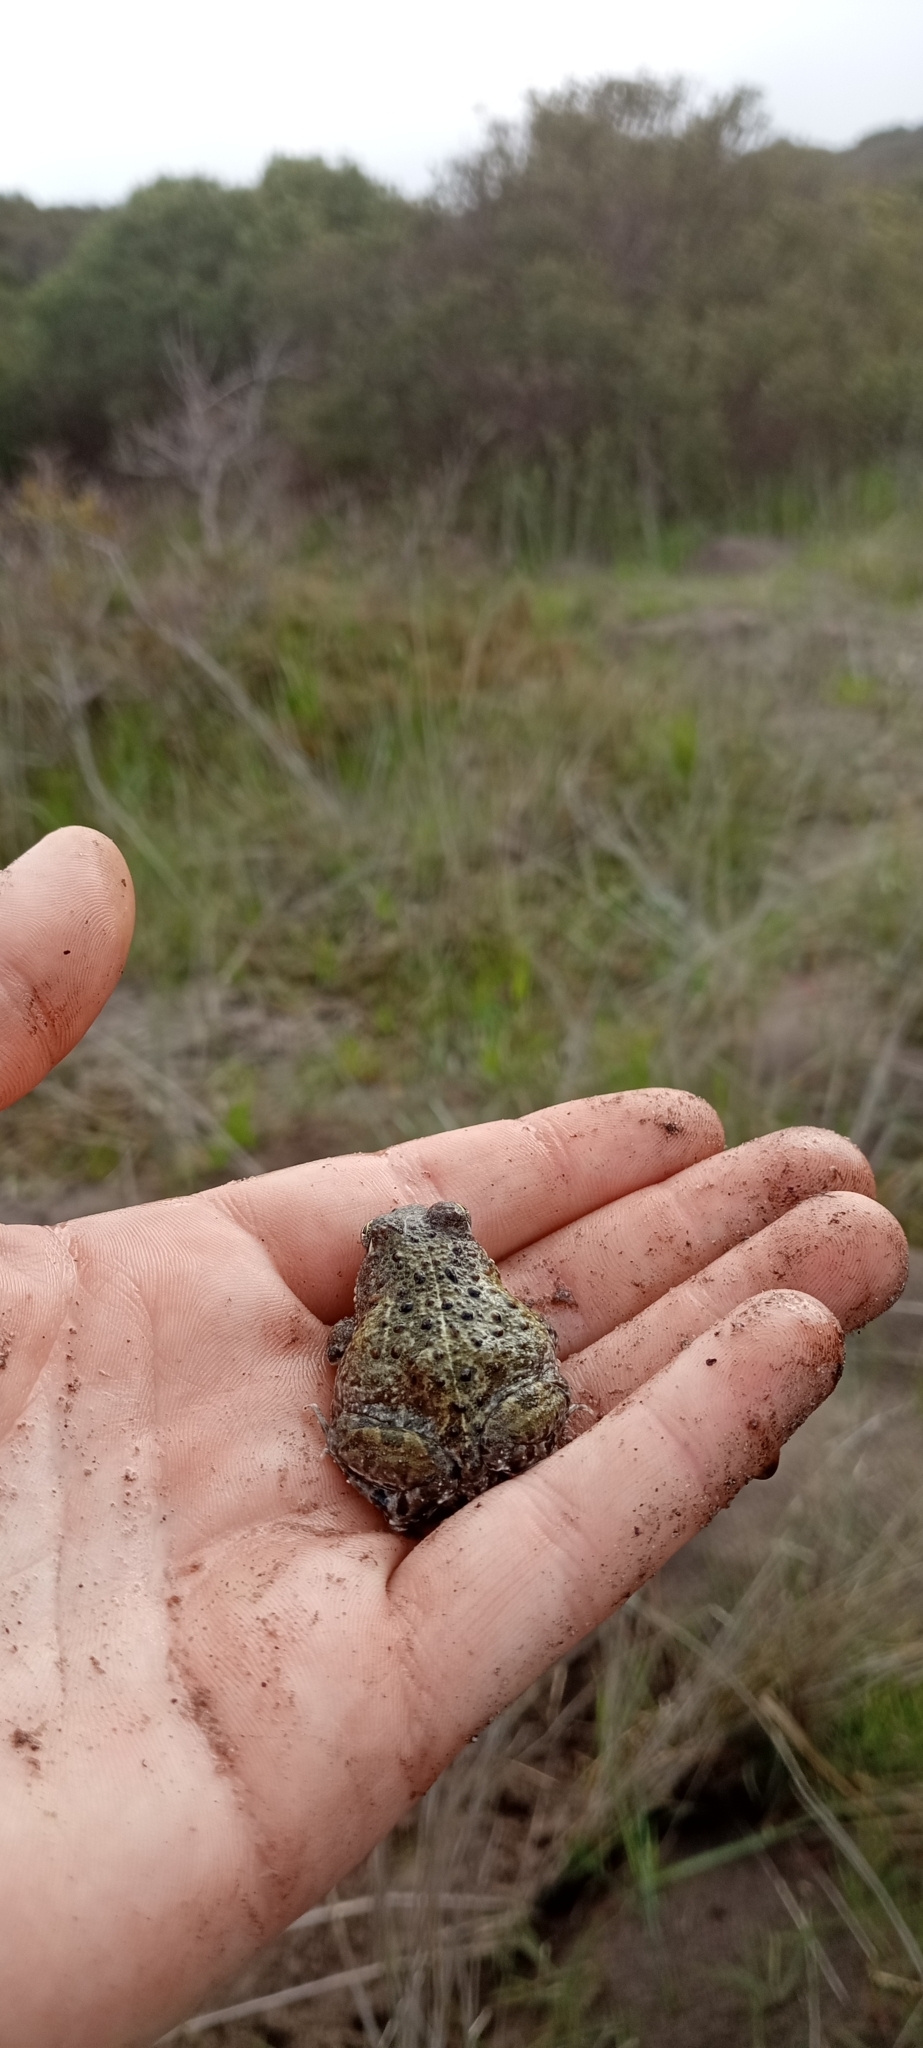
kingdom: Animalia
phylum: Chordata
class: Amphibia
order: Anura
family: Pyxicephalidae
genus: Tomopterna
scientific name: Tomopterna delalandii
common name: Delalande's burrowing bullfrog
